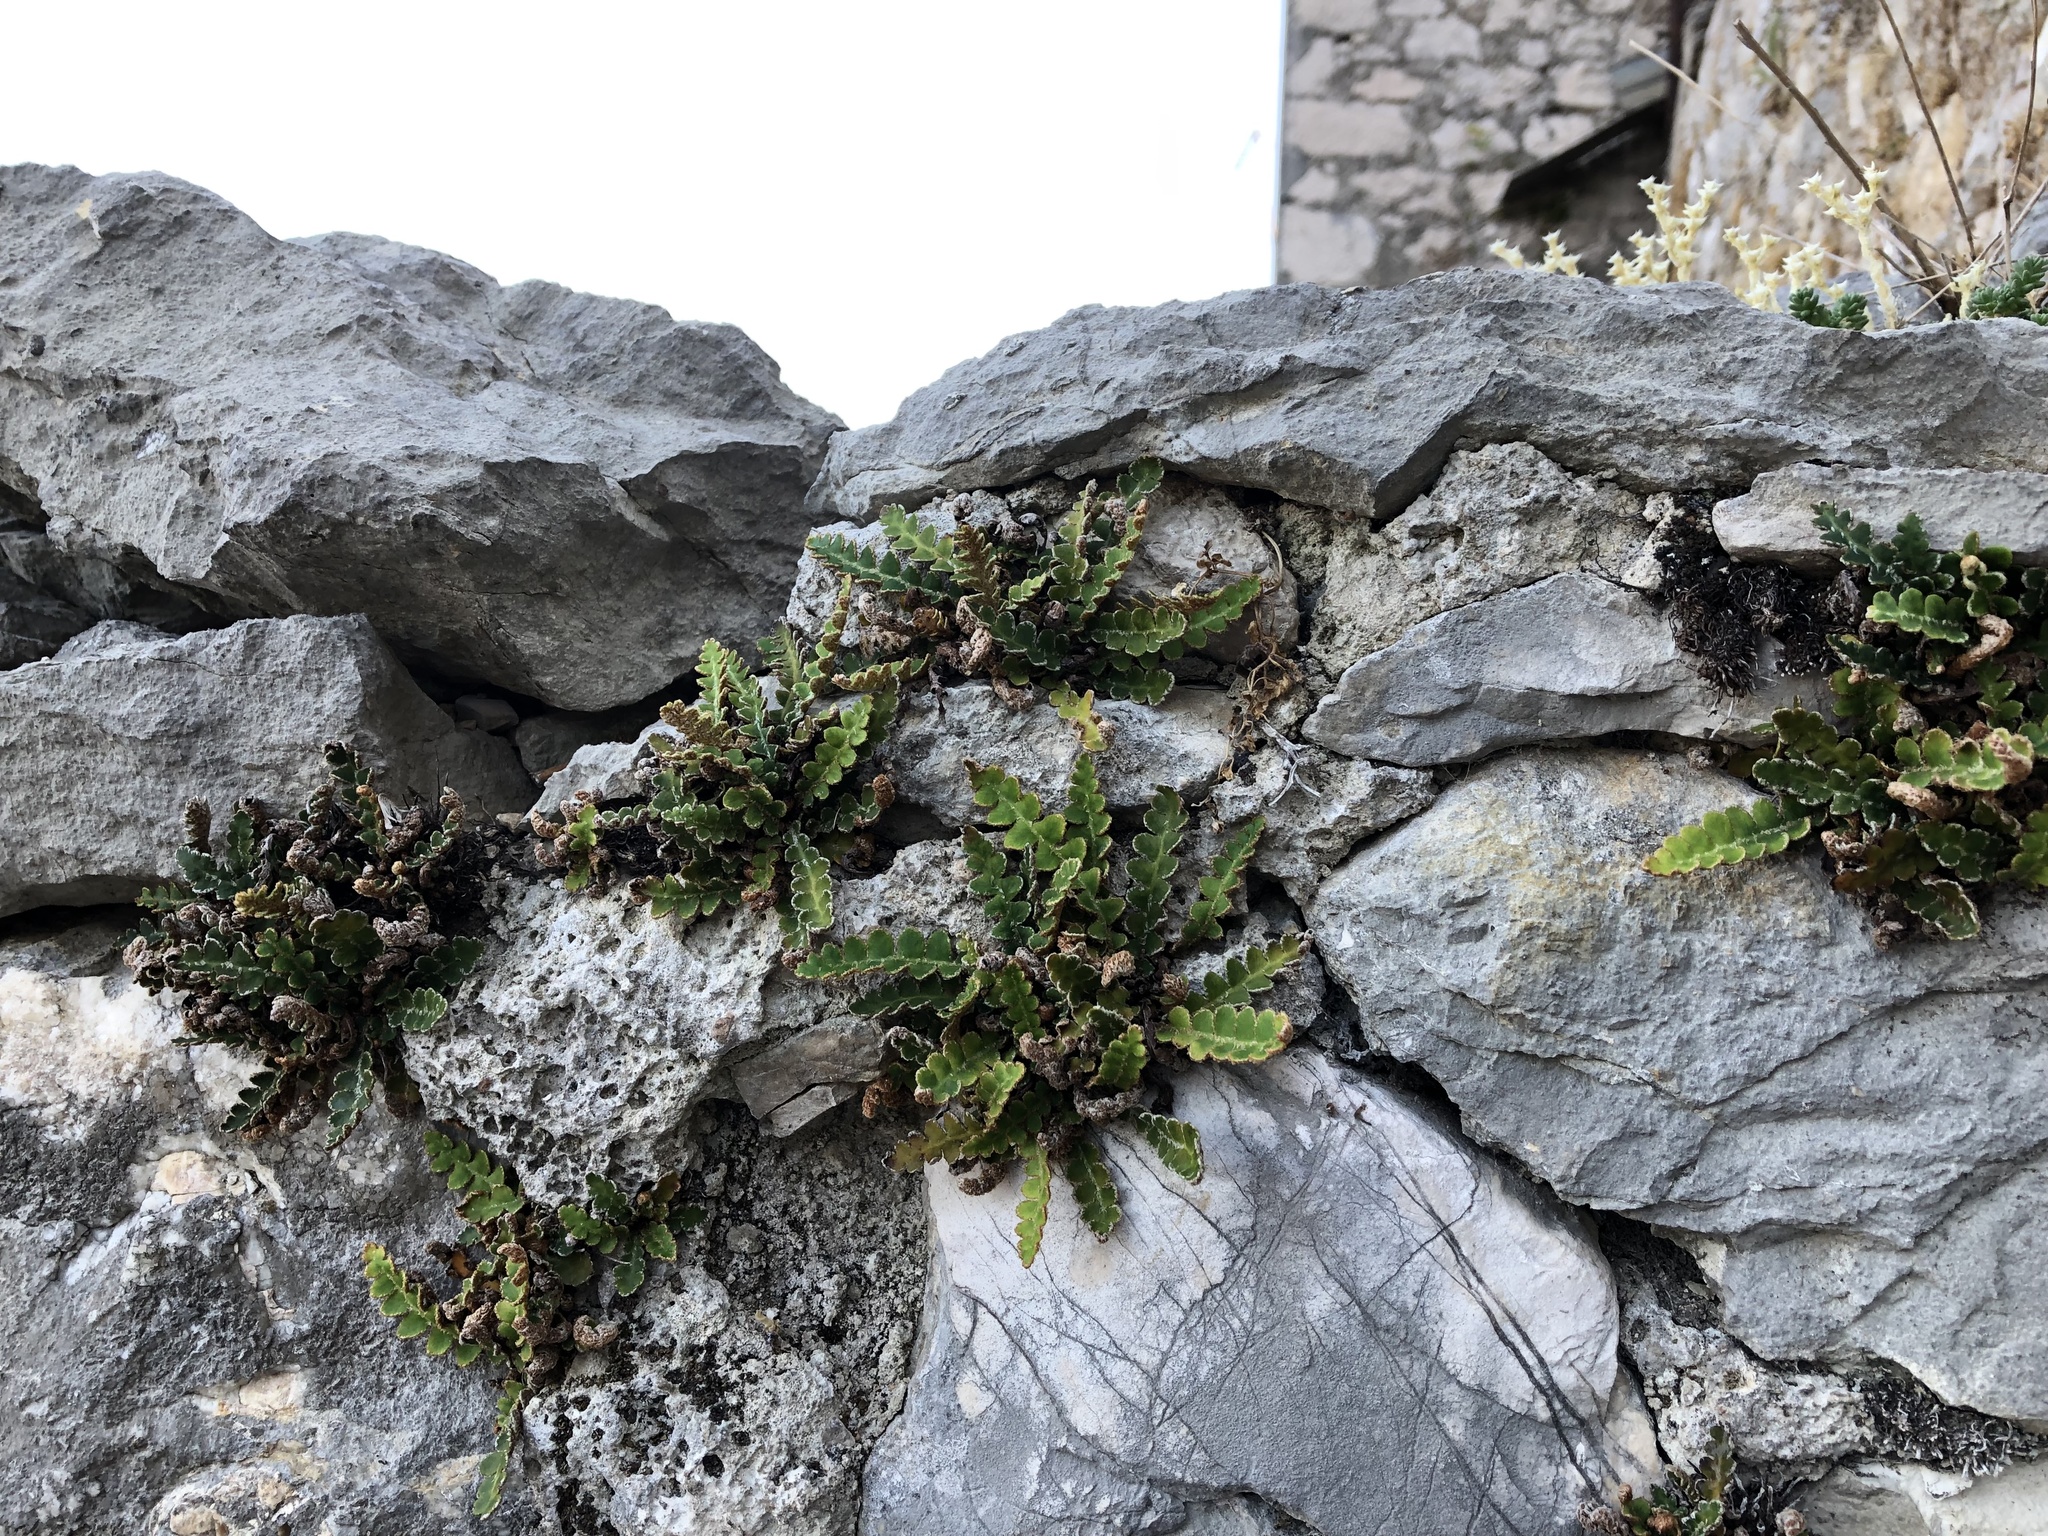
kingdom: Plantae
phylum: Tracheophyta
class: Polypodiopsida
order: Polypodiales
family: Aspleniaceae
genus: Asplenium
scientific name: Asplenium ceterach
